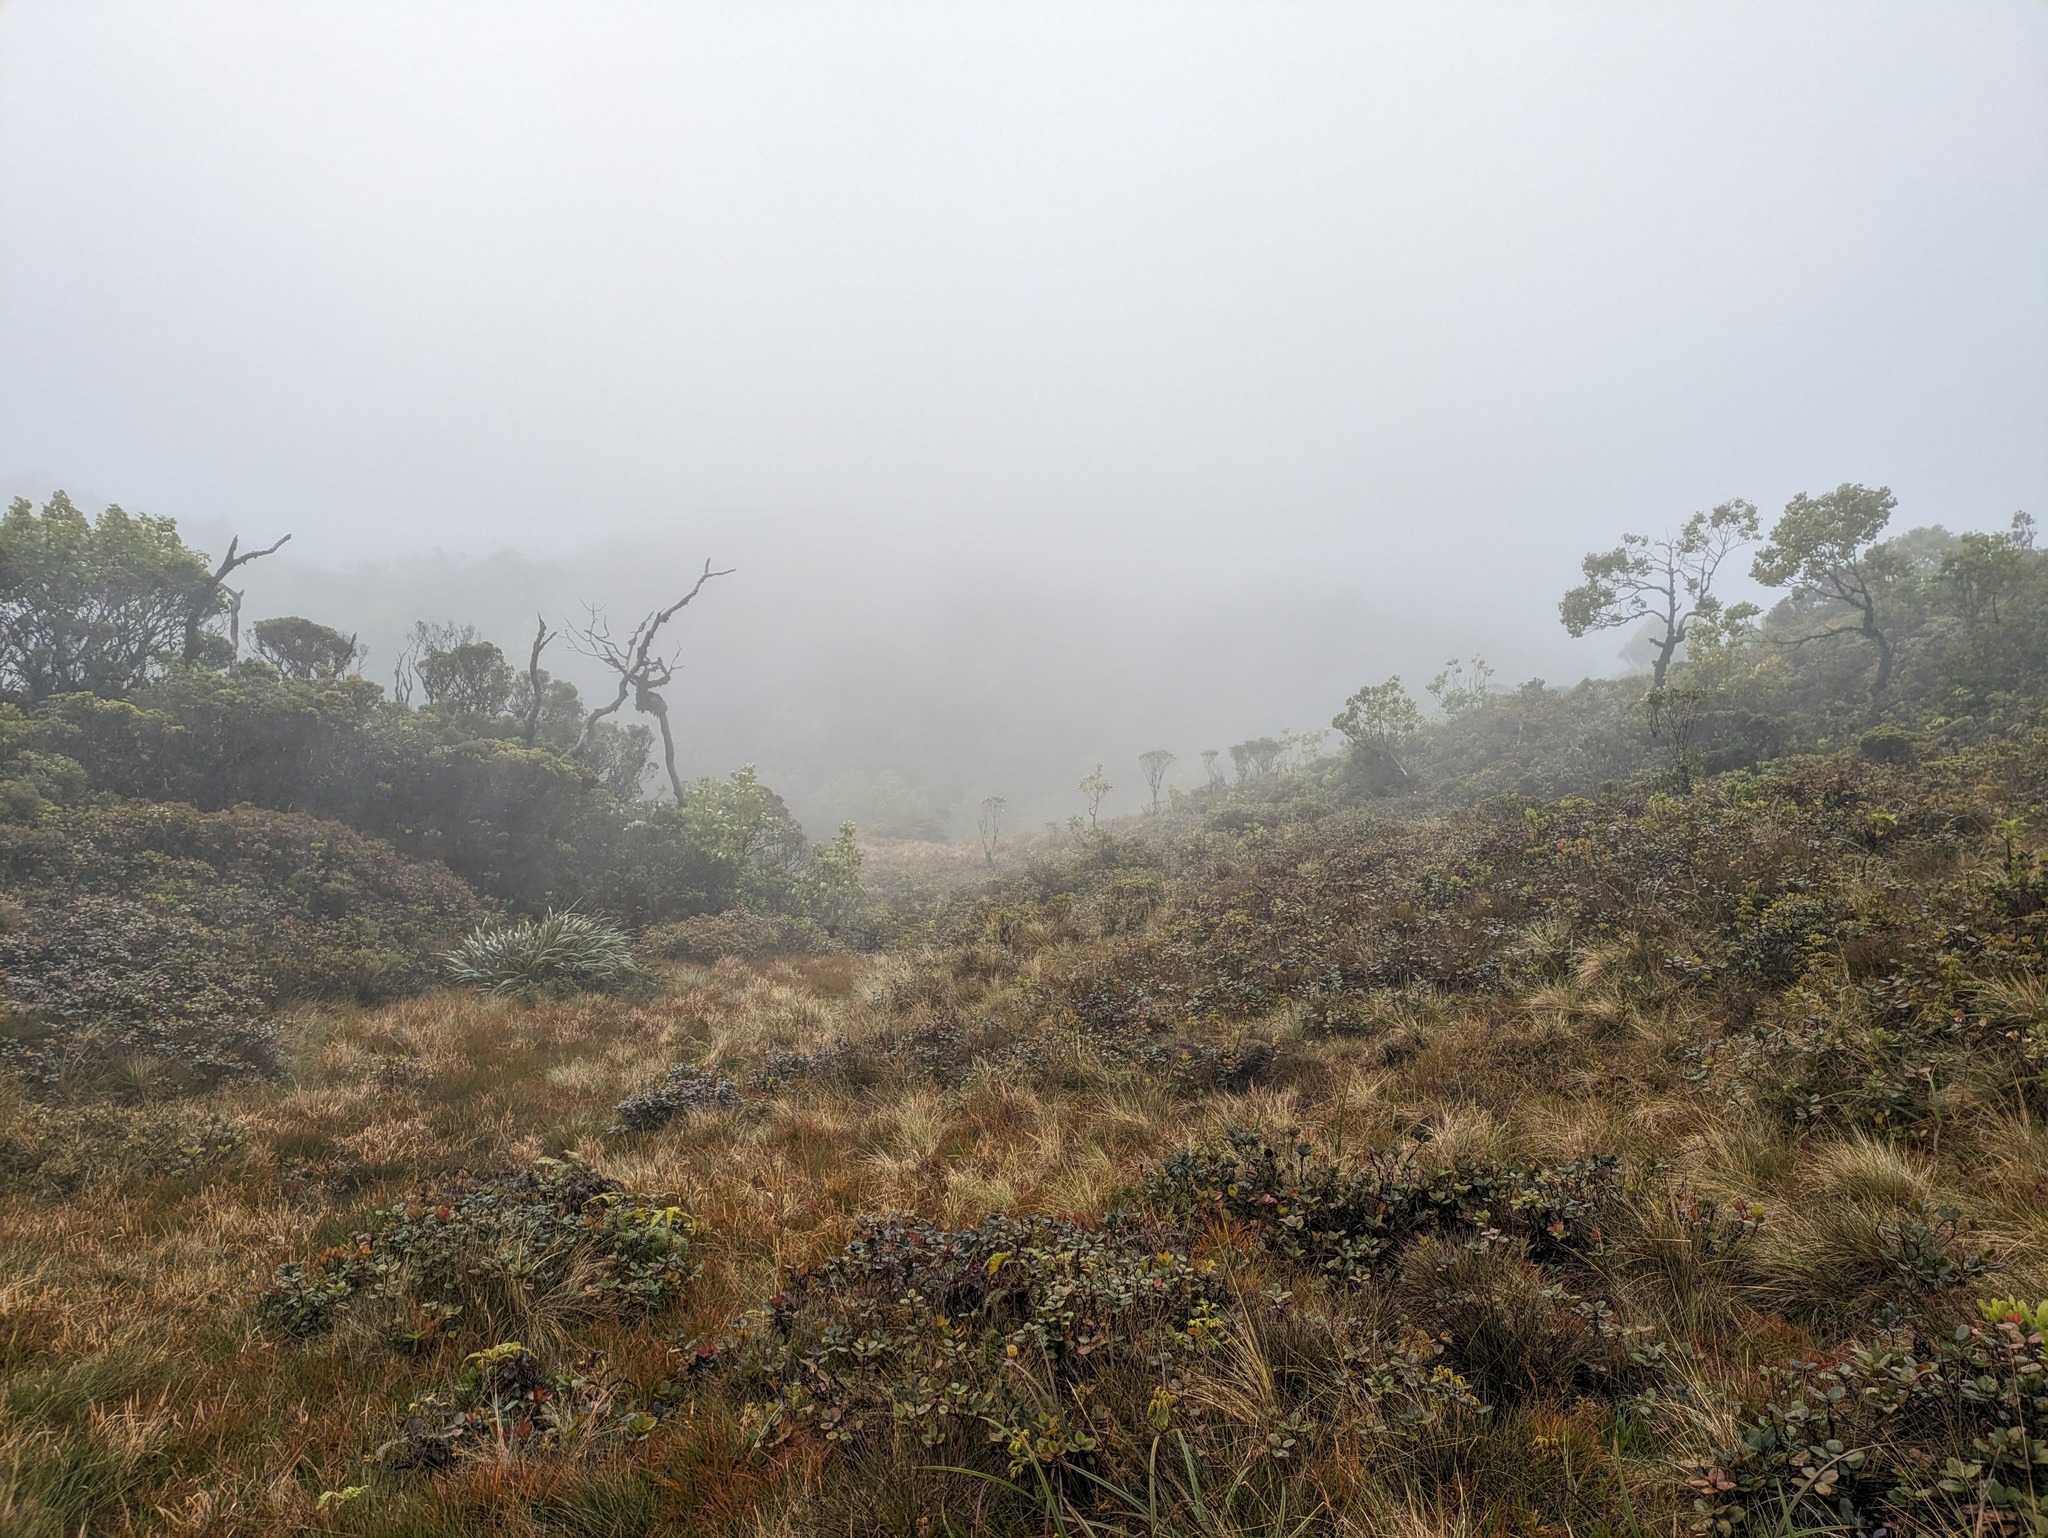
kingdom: Plantae
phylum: Tracheophyta
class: Liliopsida
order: Poales
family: Poaceae
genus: Deschampsia
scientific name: Deschampsia nubigena
